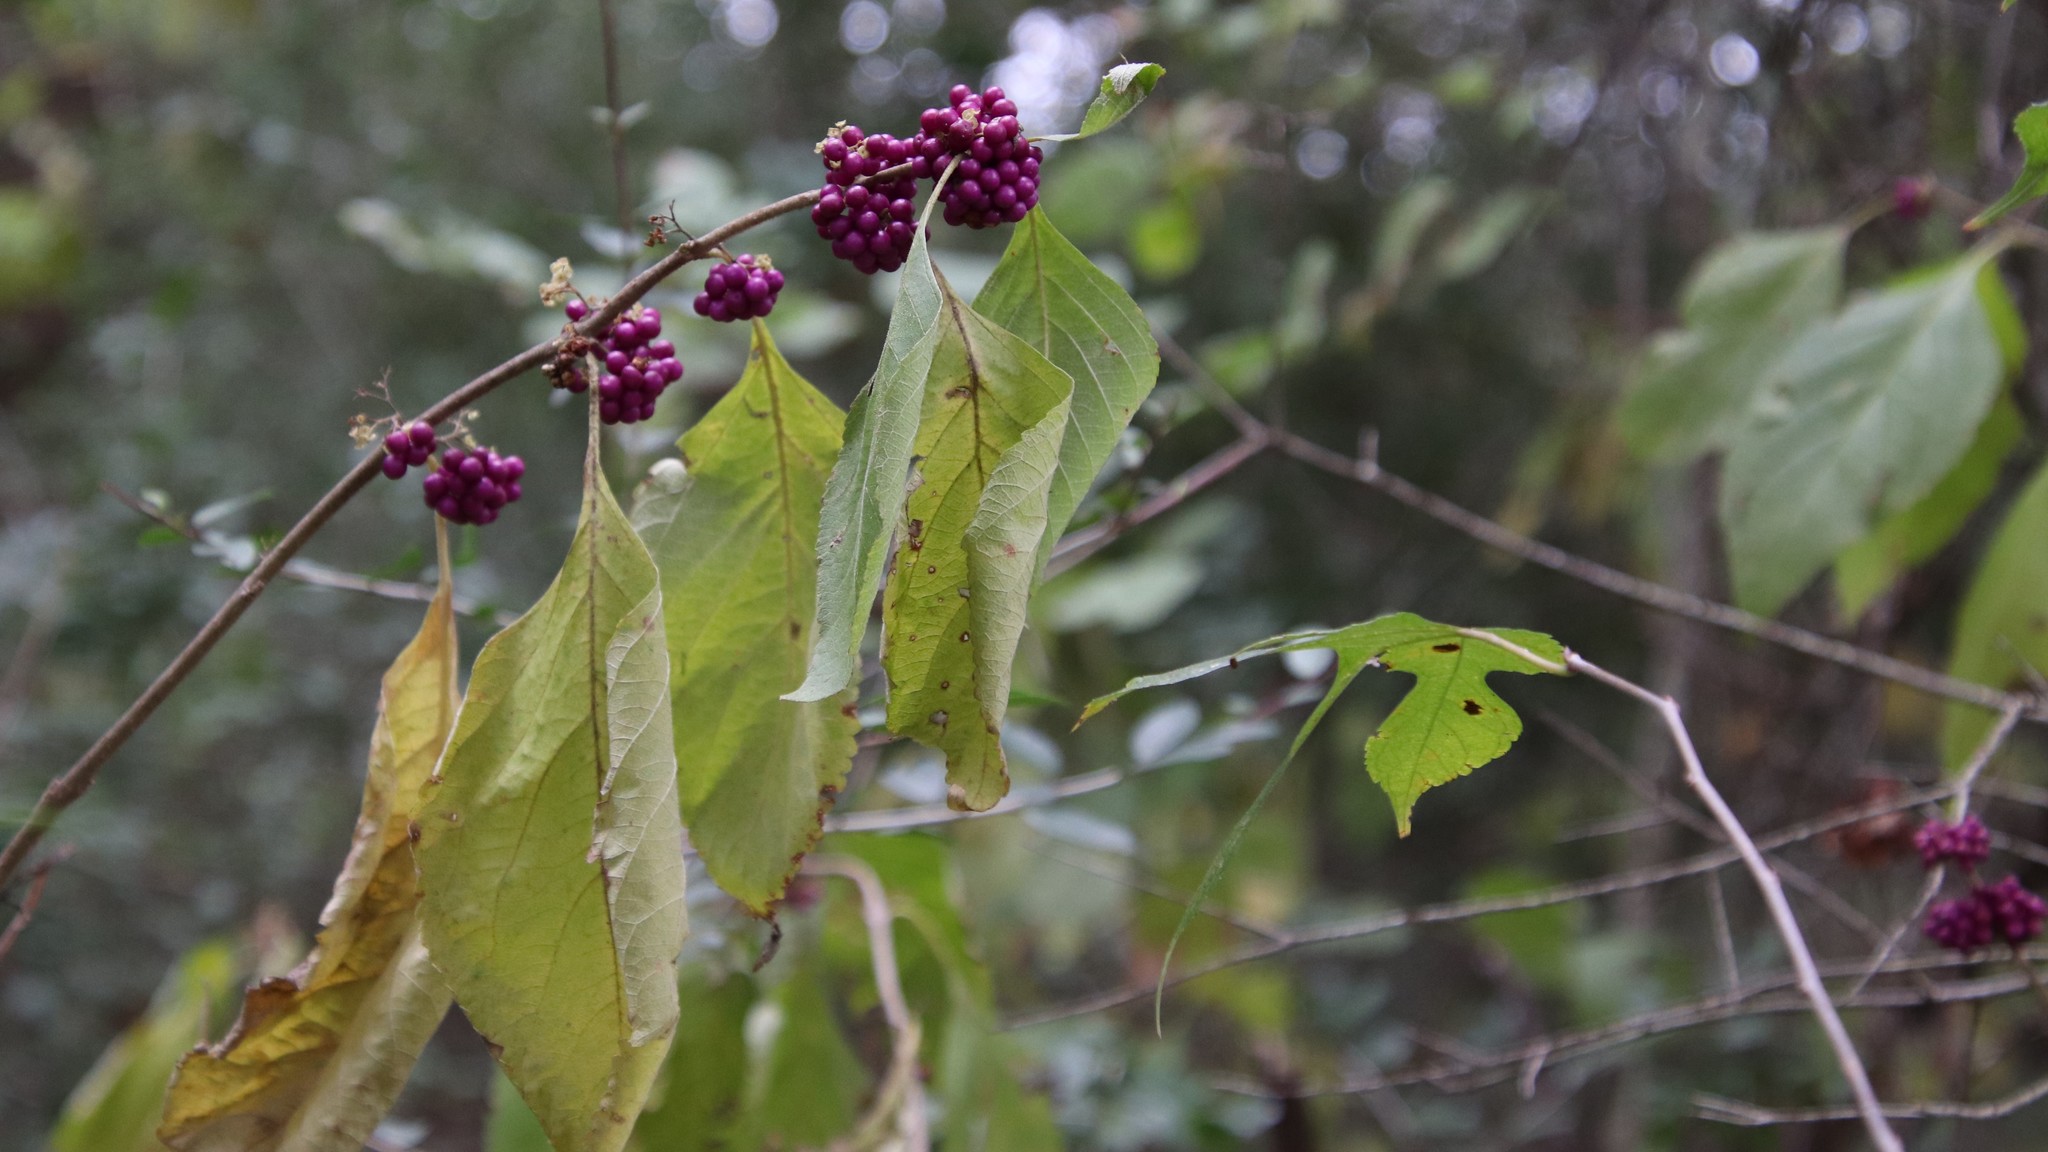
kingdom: Plantae
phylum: Tracheophyta
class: Magnoliopsida
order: Lamiales
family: Lamiaceae
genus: Callicarpa
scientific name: Callicarpa americana
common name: American beautyberry
